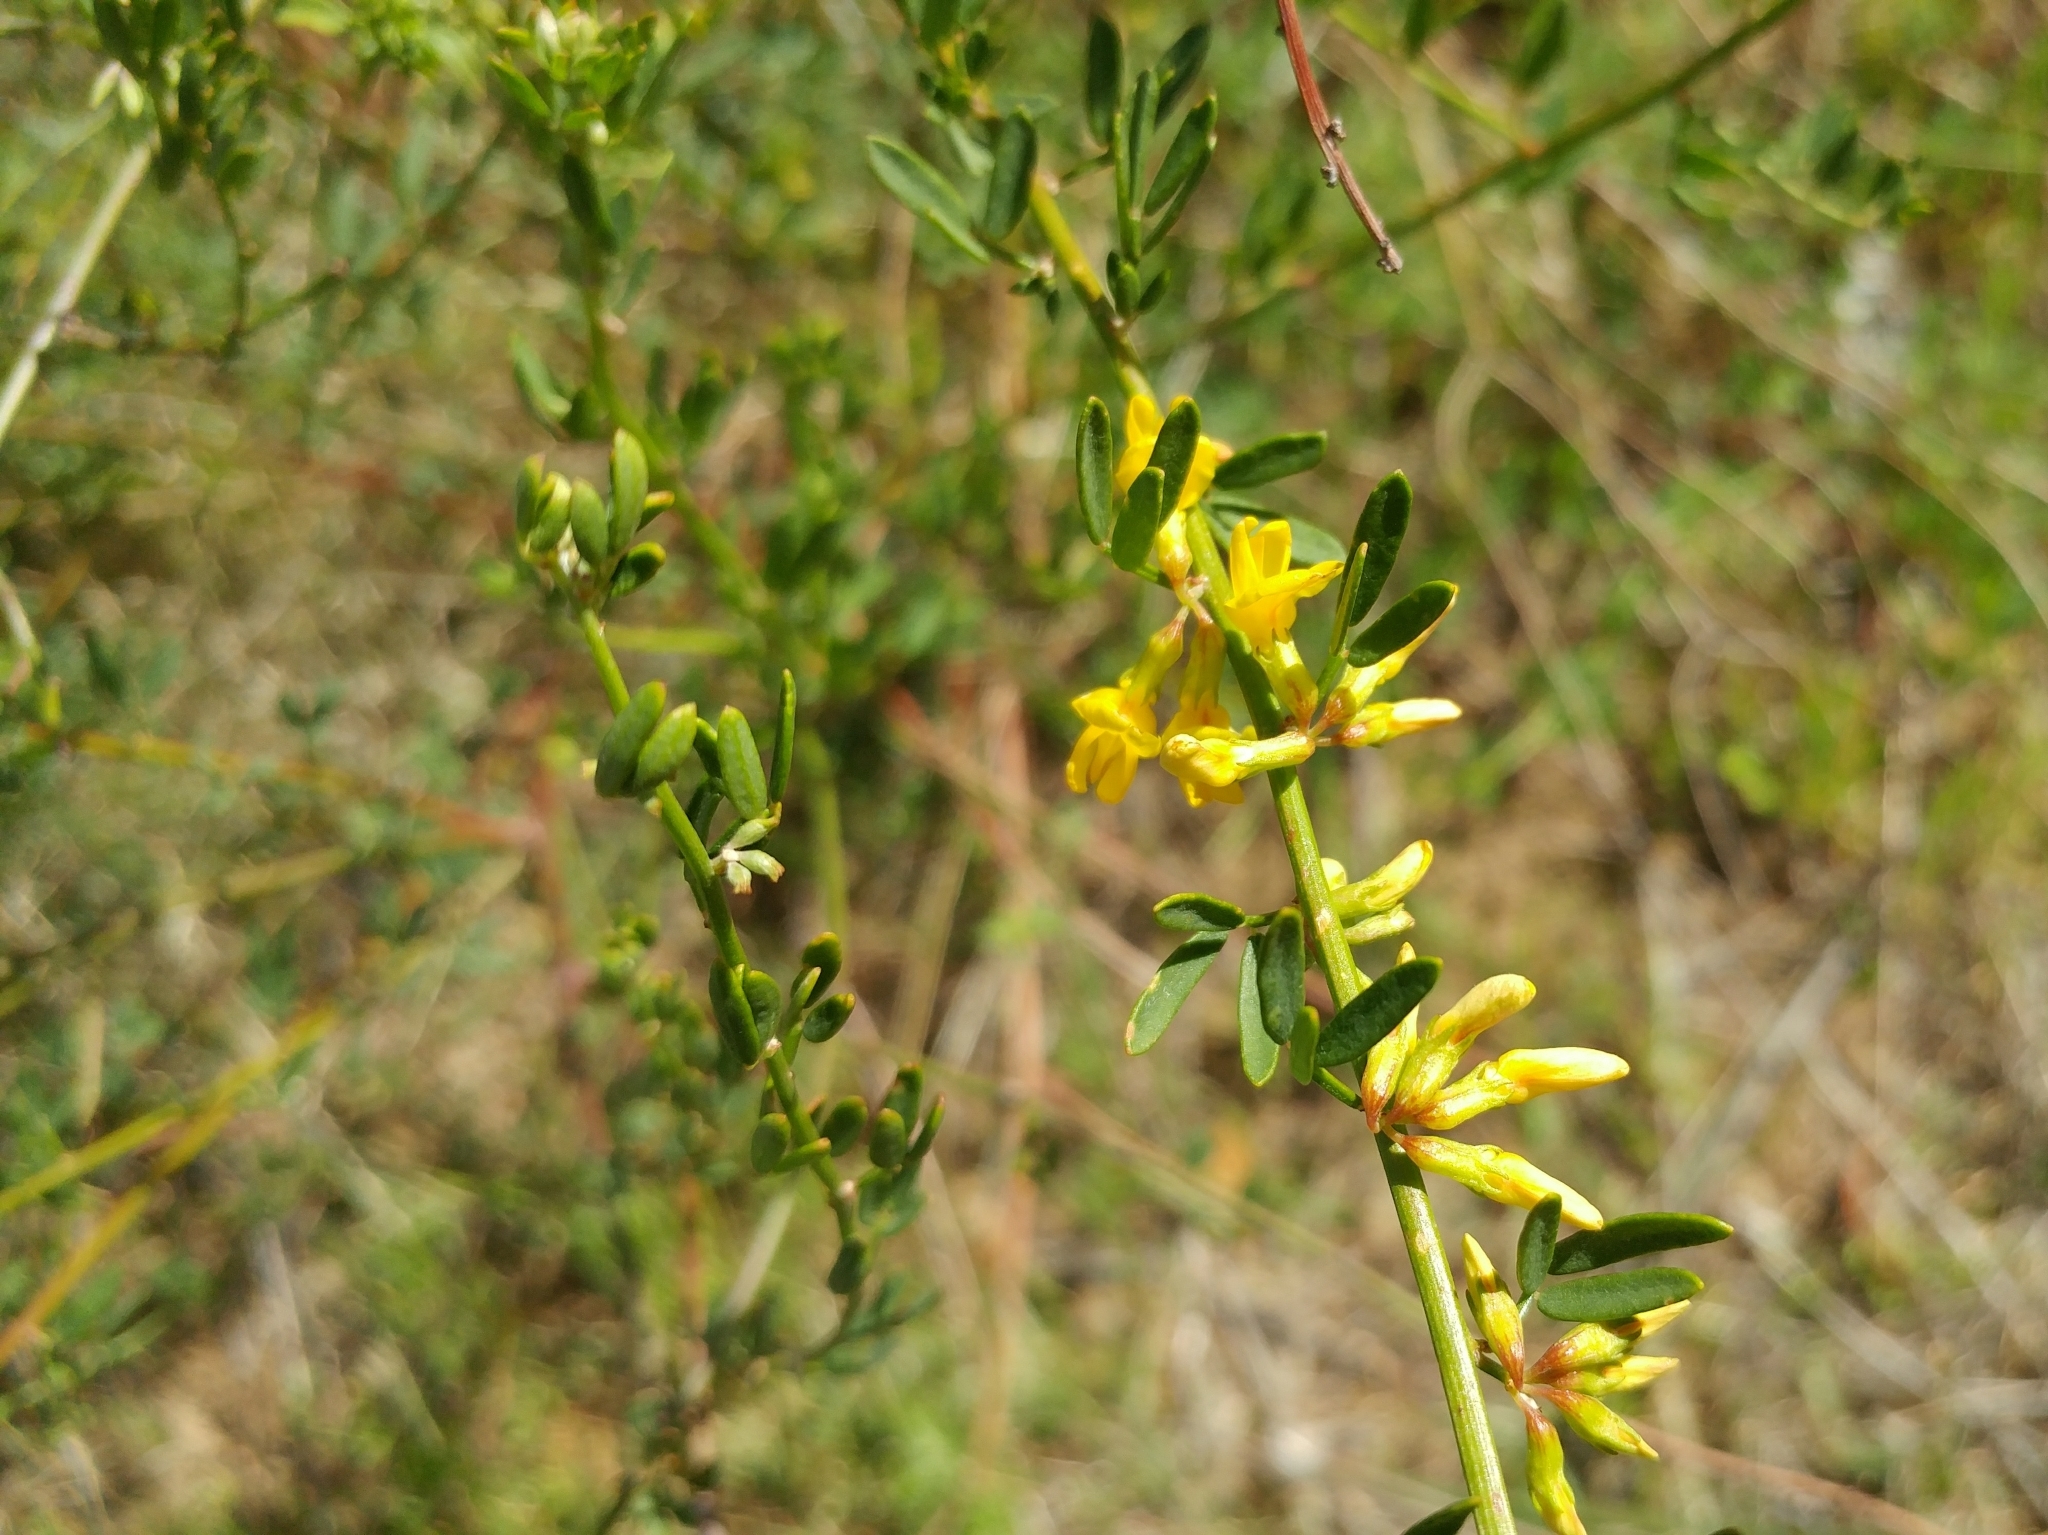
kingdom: Plantae
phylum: Tracheophyta
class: Magnoliopsida
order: Fabales
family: Fabaceae
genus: Acmispon
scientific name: Acmispon glaber
